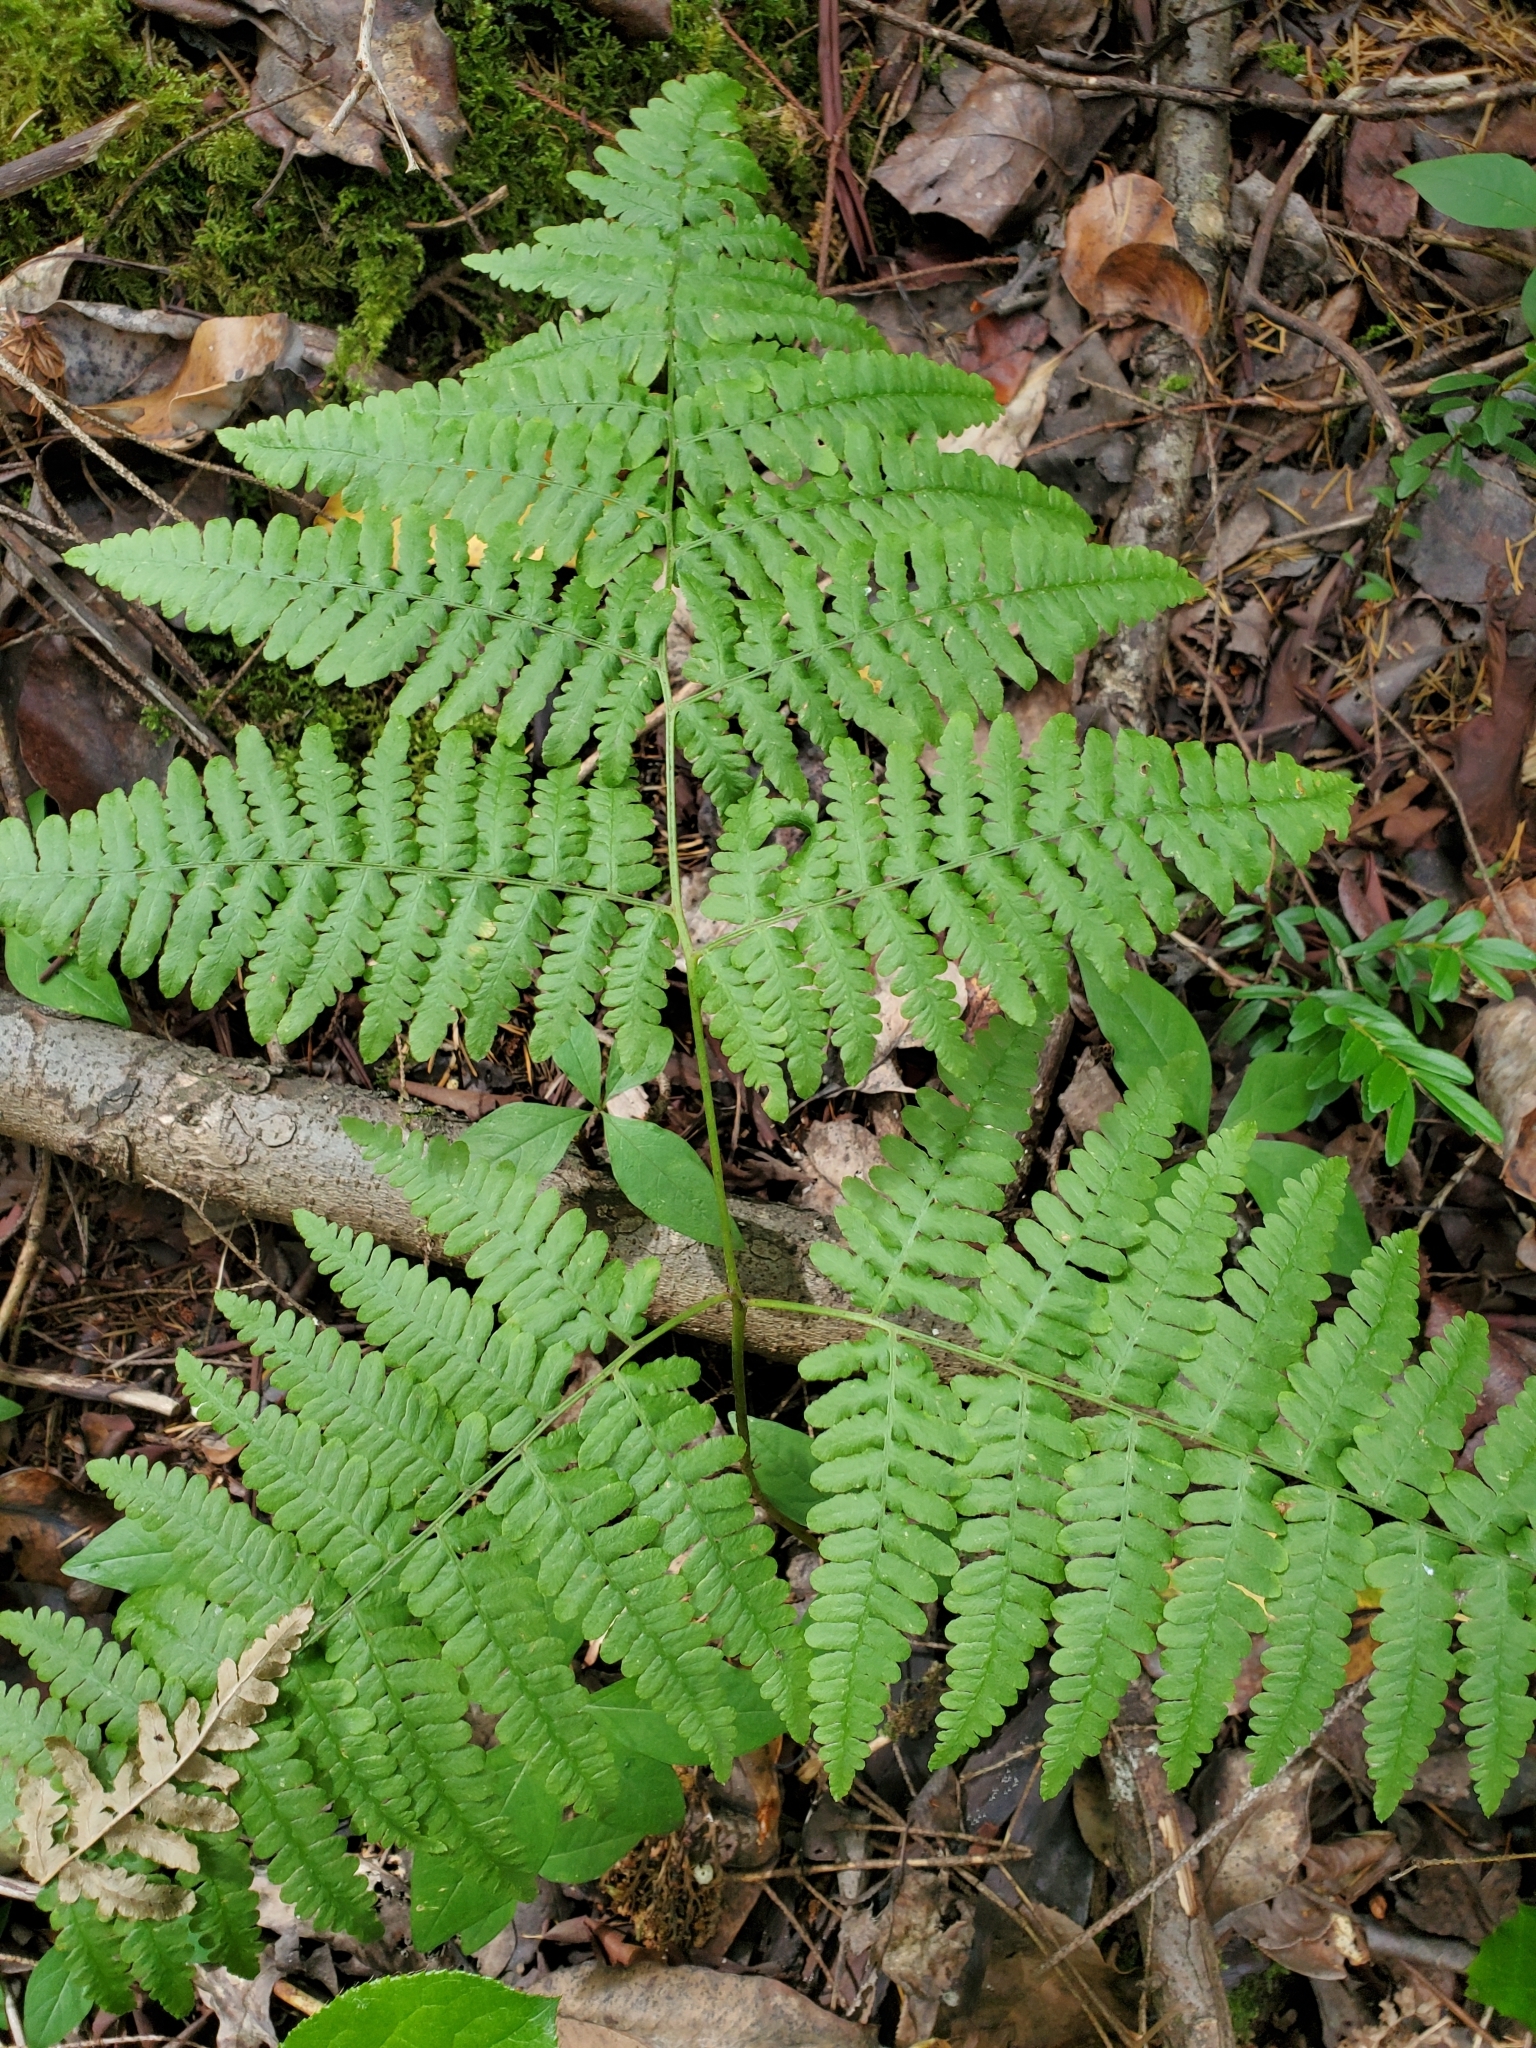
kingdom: Plantae
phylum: Tracheophyta
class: Polypodiopsida
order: Polypodiales
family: Dennstaedtiaceae
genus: Pteridium
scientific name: Pteridium aquilinum
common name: Bracken
